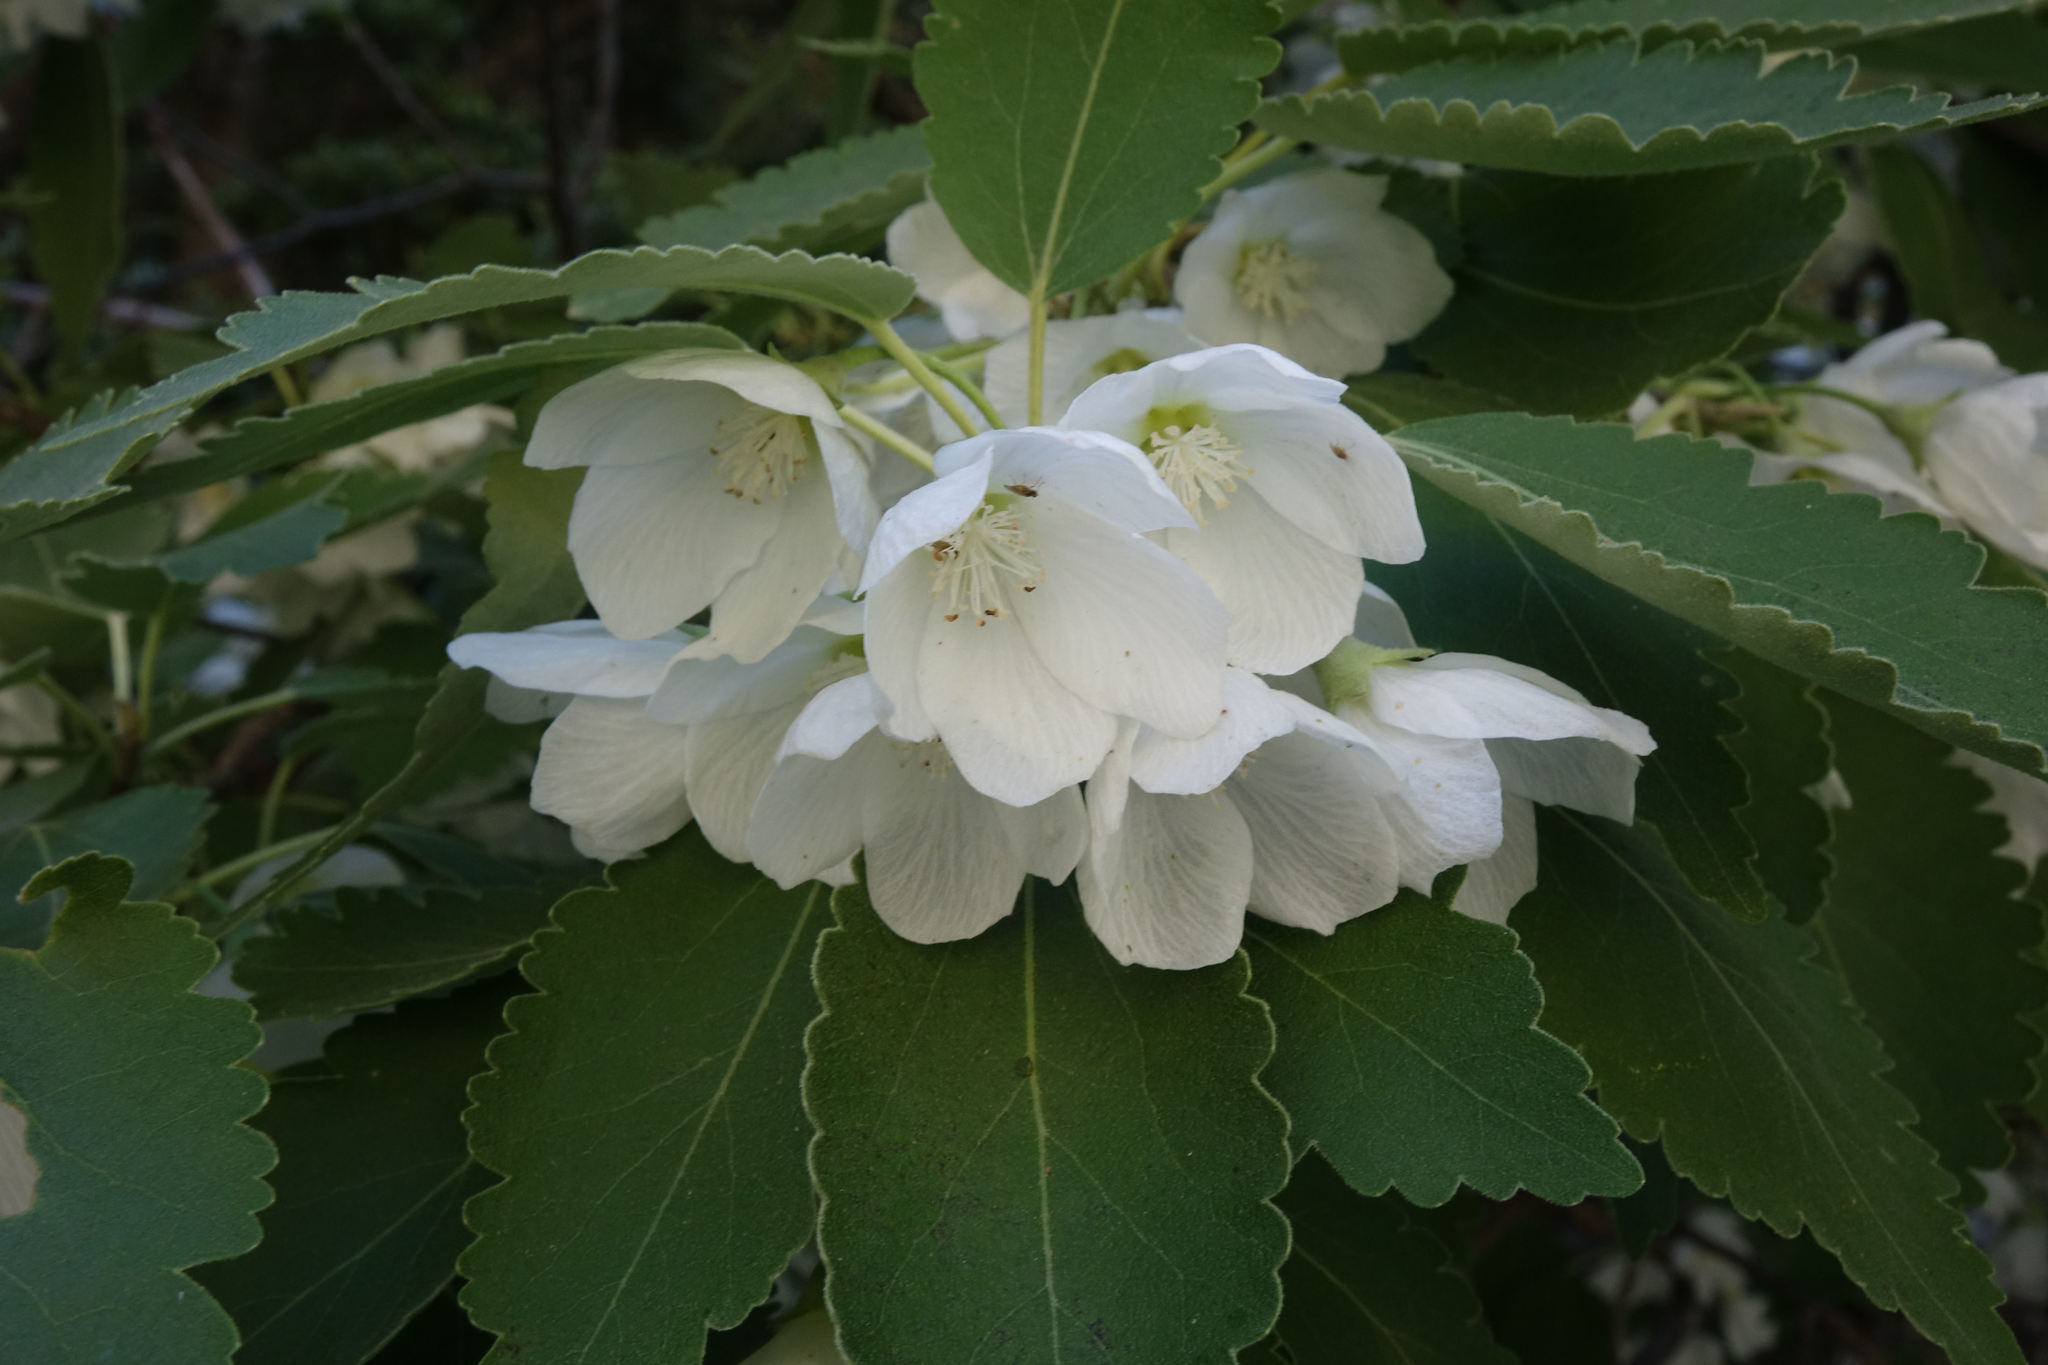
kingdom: Plantae
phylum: Tracheophyta
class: Magnoliopsida
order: Malvales
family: Malvaceae
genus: Hoheria
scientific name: Hoheria lyallii
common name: Lacebark
